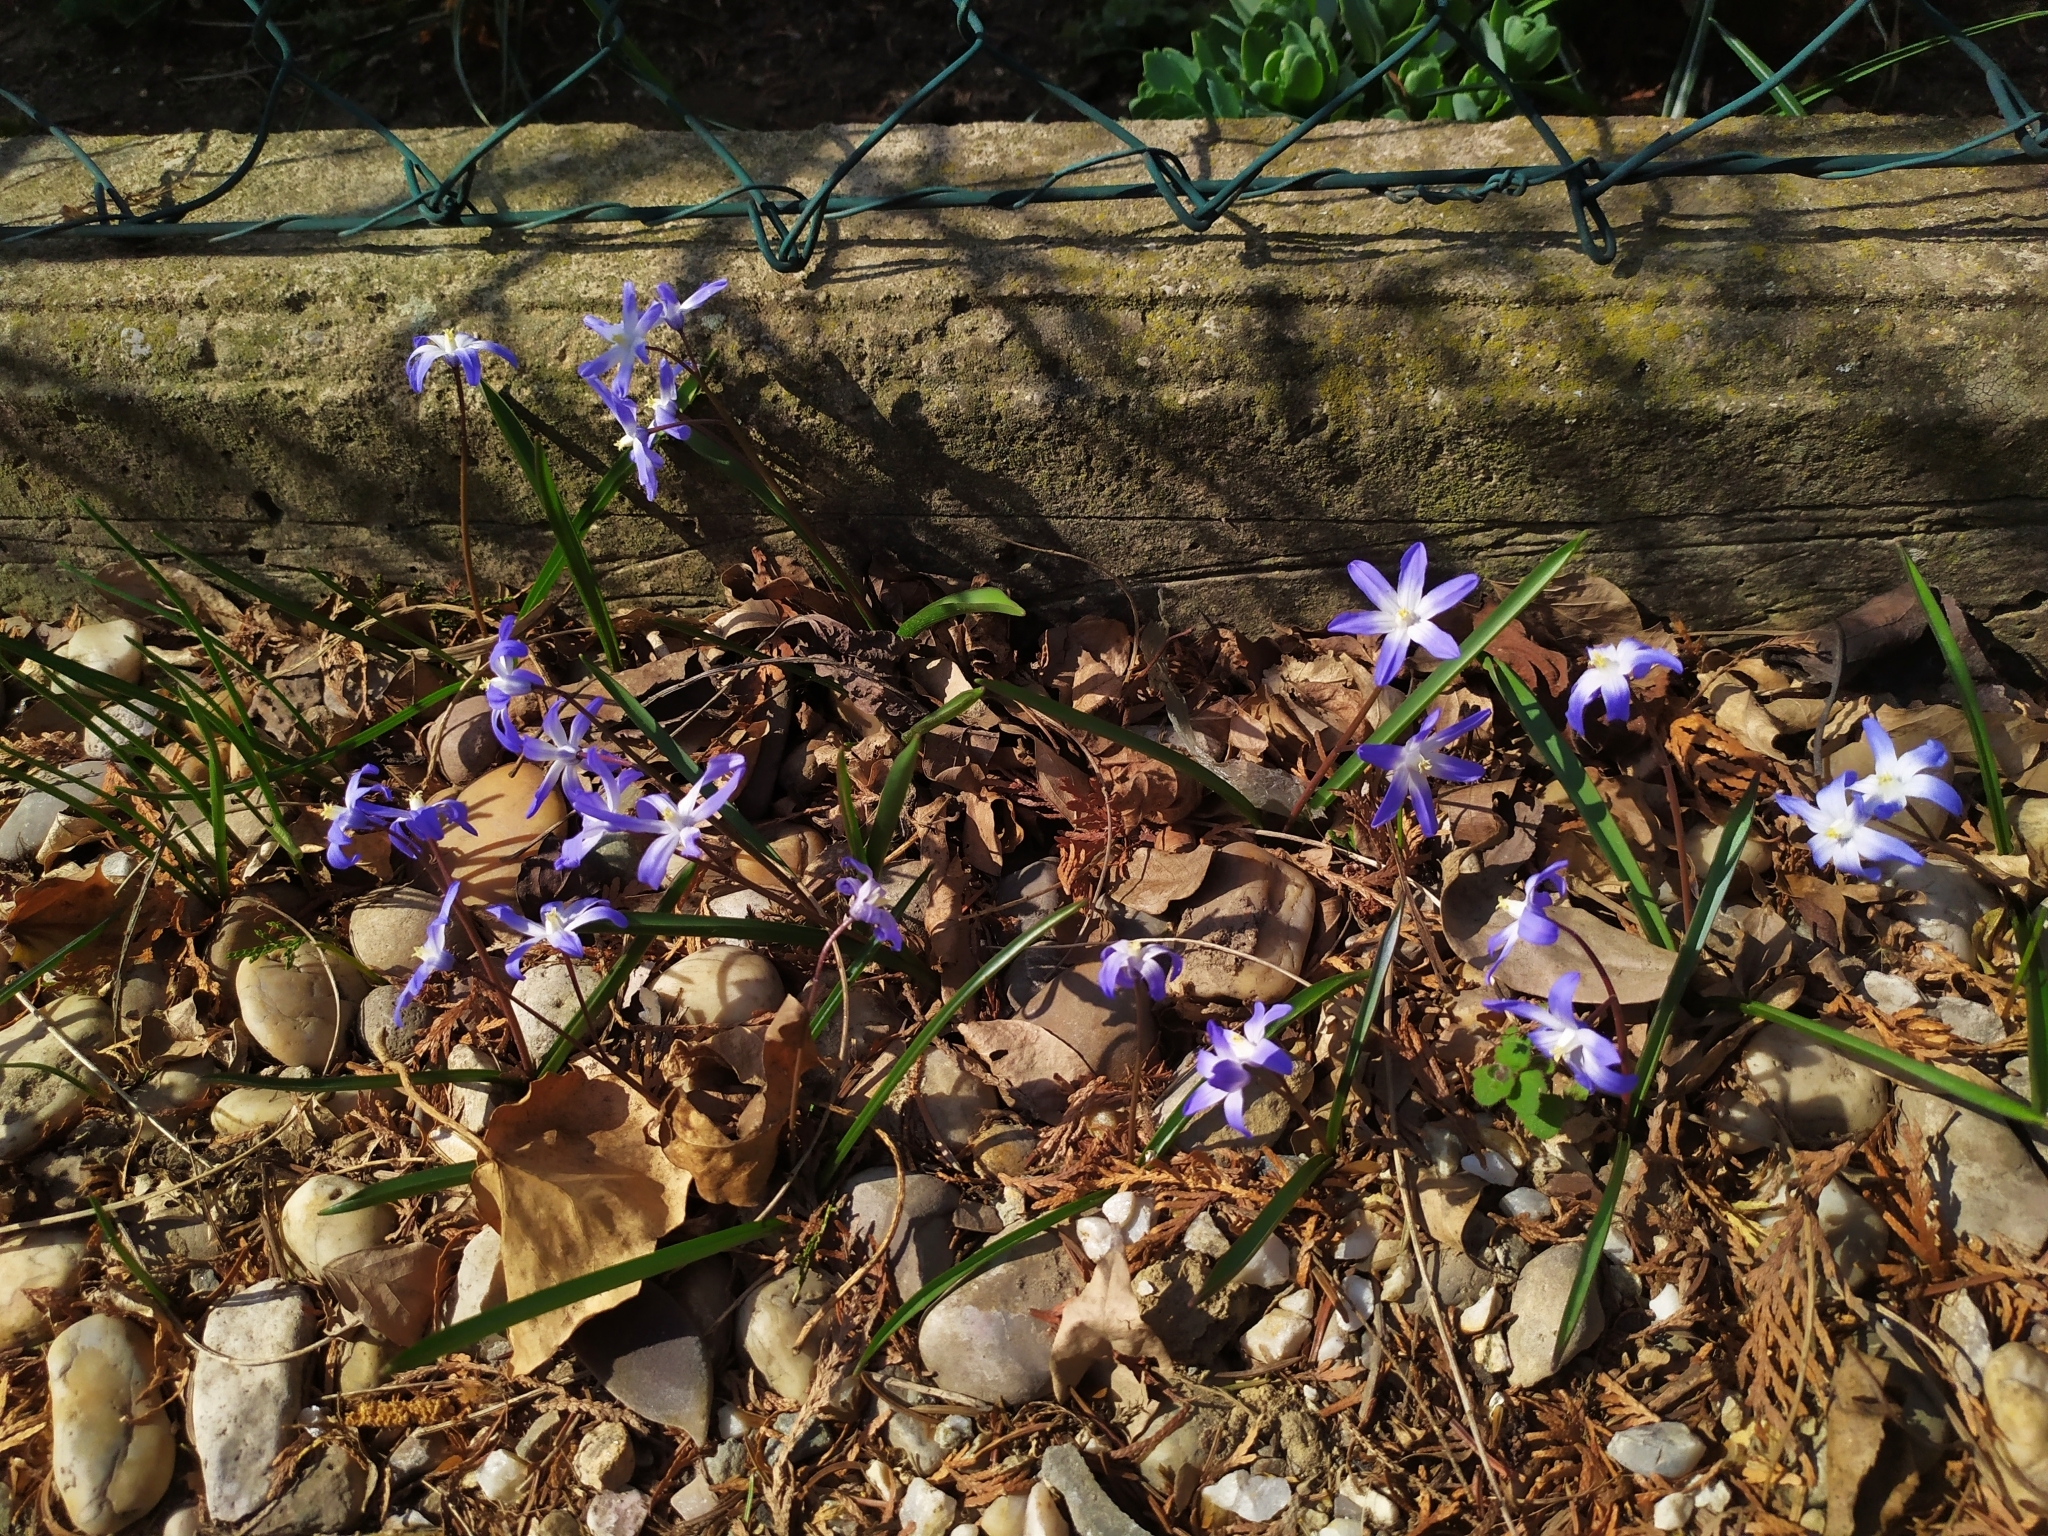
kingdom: Plantae
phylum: Tracheophyta
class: Liliopsida
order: Asparagales
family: Asparagaceae
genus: Scilla
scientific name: Scilla luciliae
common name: Boissier's glory-of-the-snow
